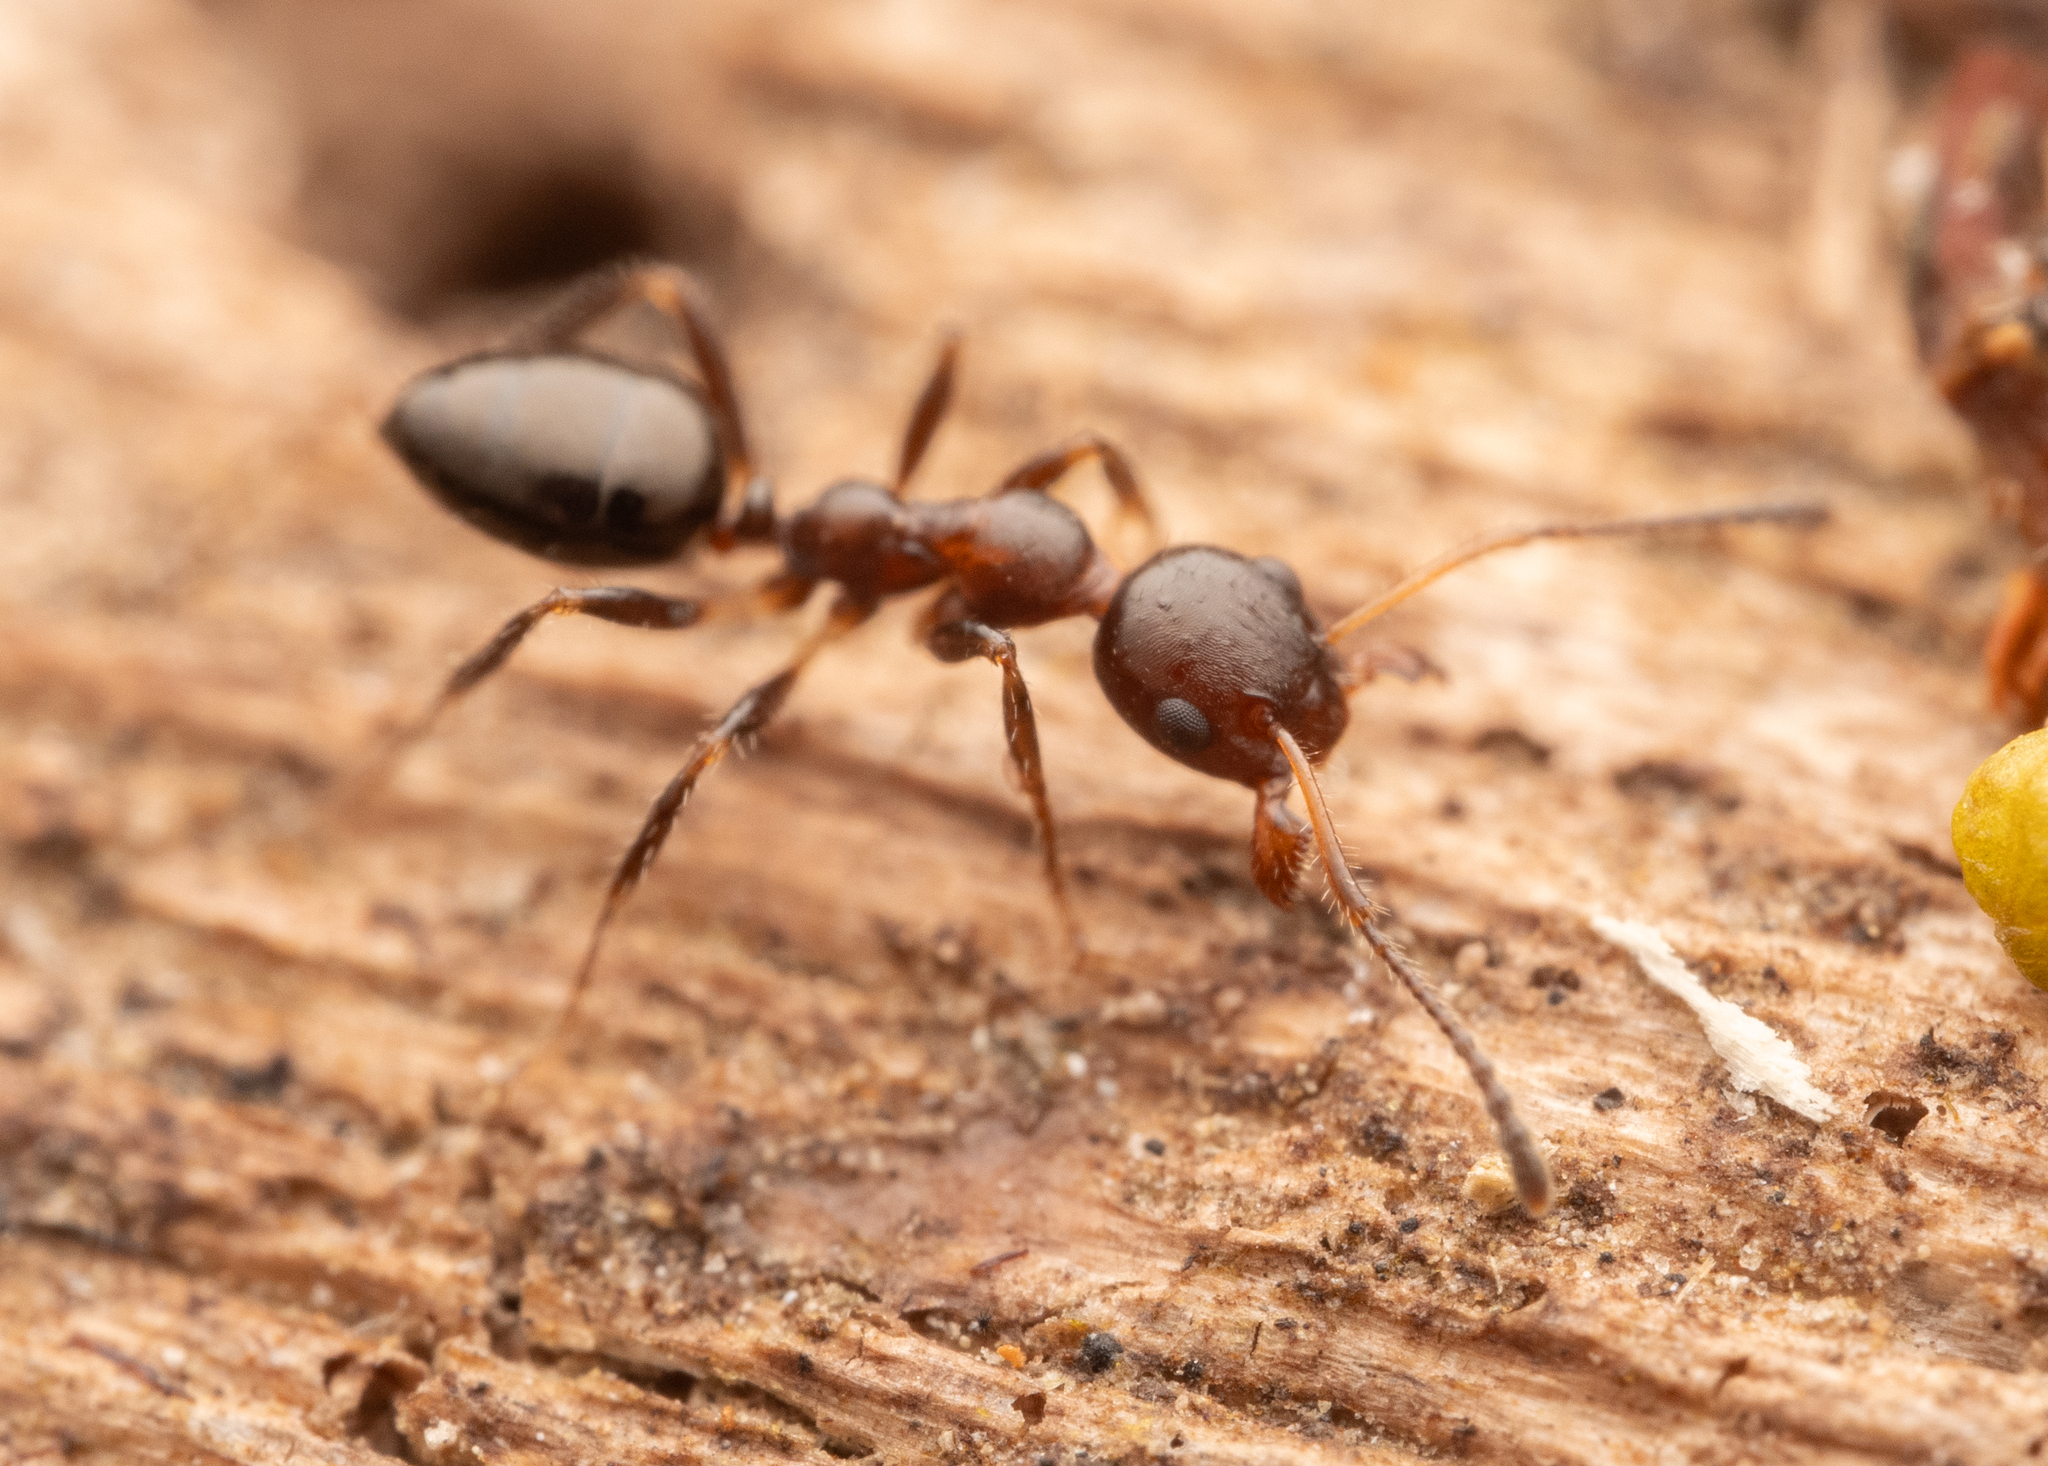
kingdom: Animalia
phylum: Arthropoda
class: Insecta
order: Hymenoptera
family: Formicidae
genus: Myrmecorhynchus
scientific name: Myrmecorhynchus emeryi
